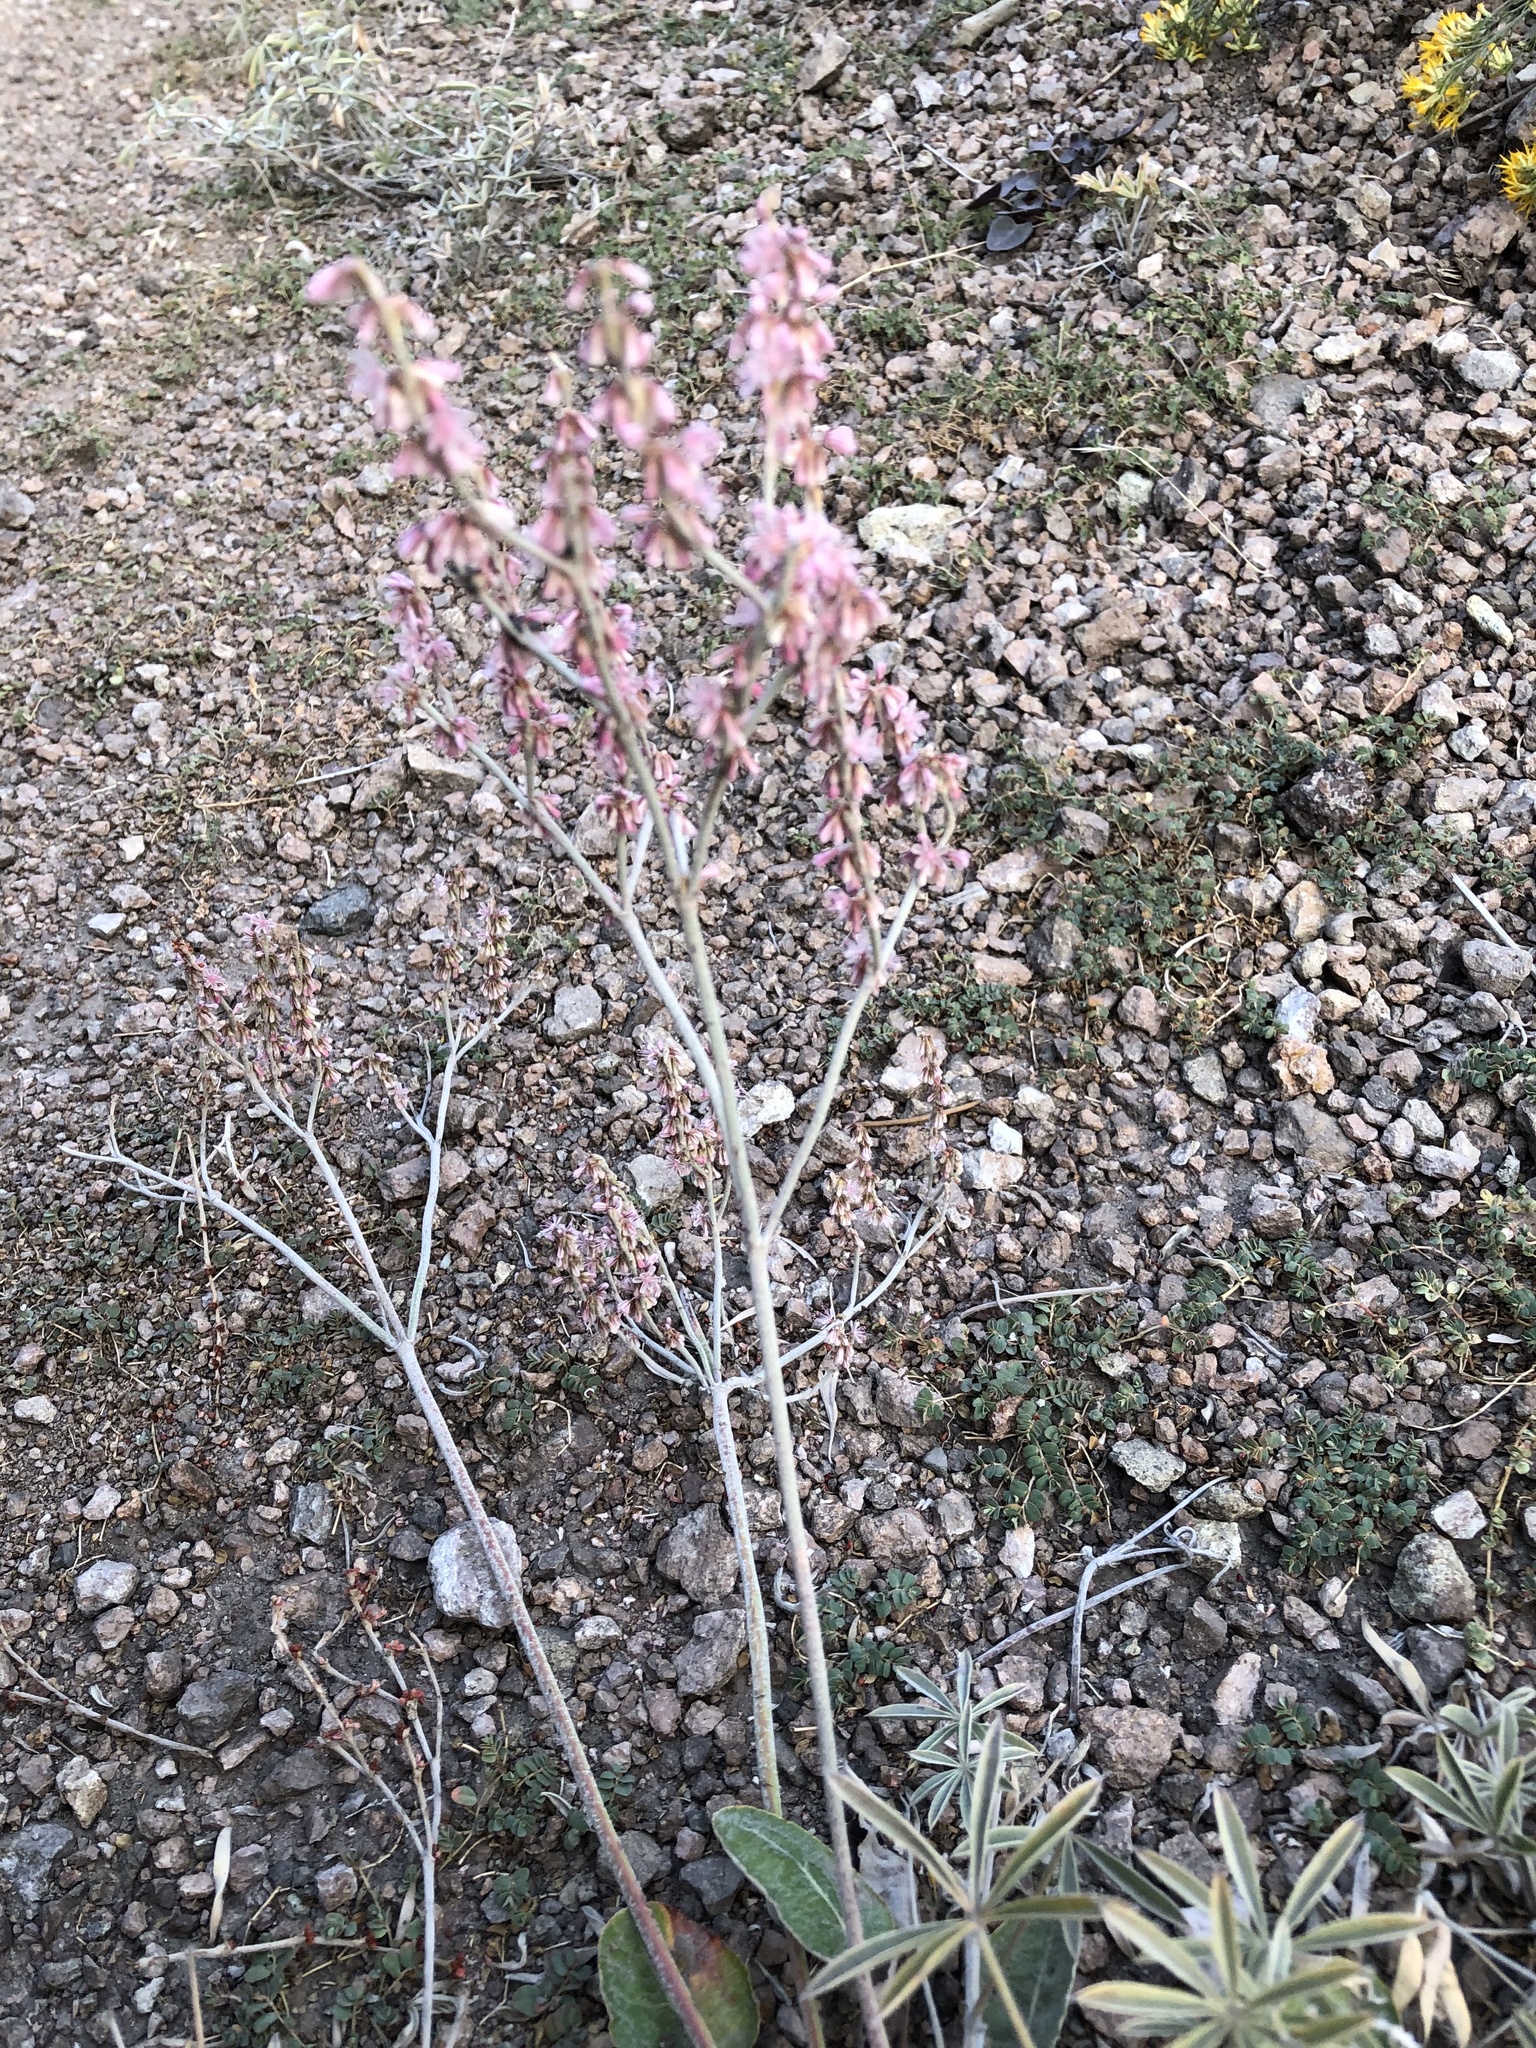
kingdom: Plantae
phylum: Tracheophyta
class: Magnoliopsida
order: Caryophyllales
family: Polygonaceae
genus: Eriogonum
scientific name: Eriogonum racemosum
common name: Redroot wild buckwheat
